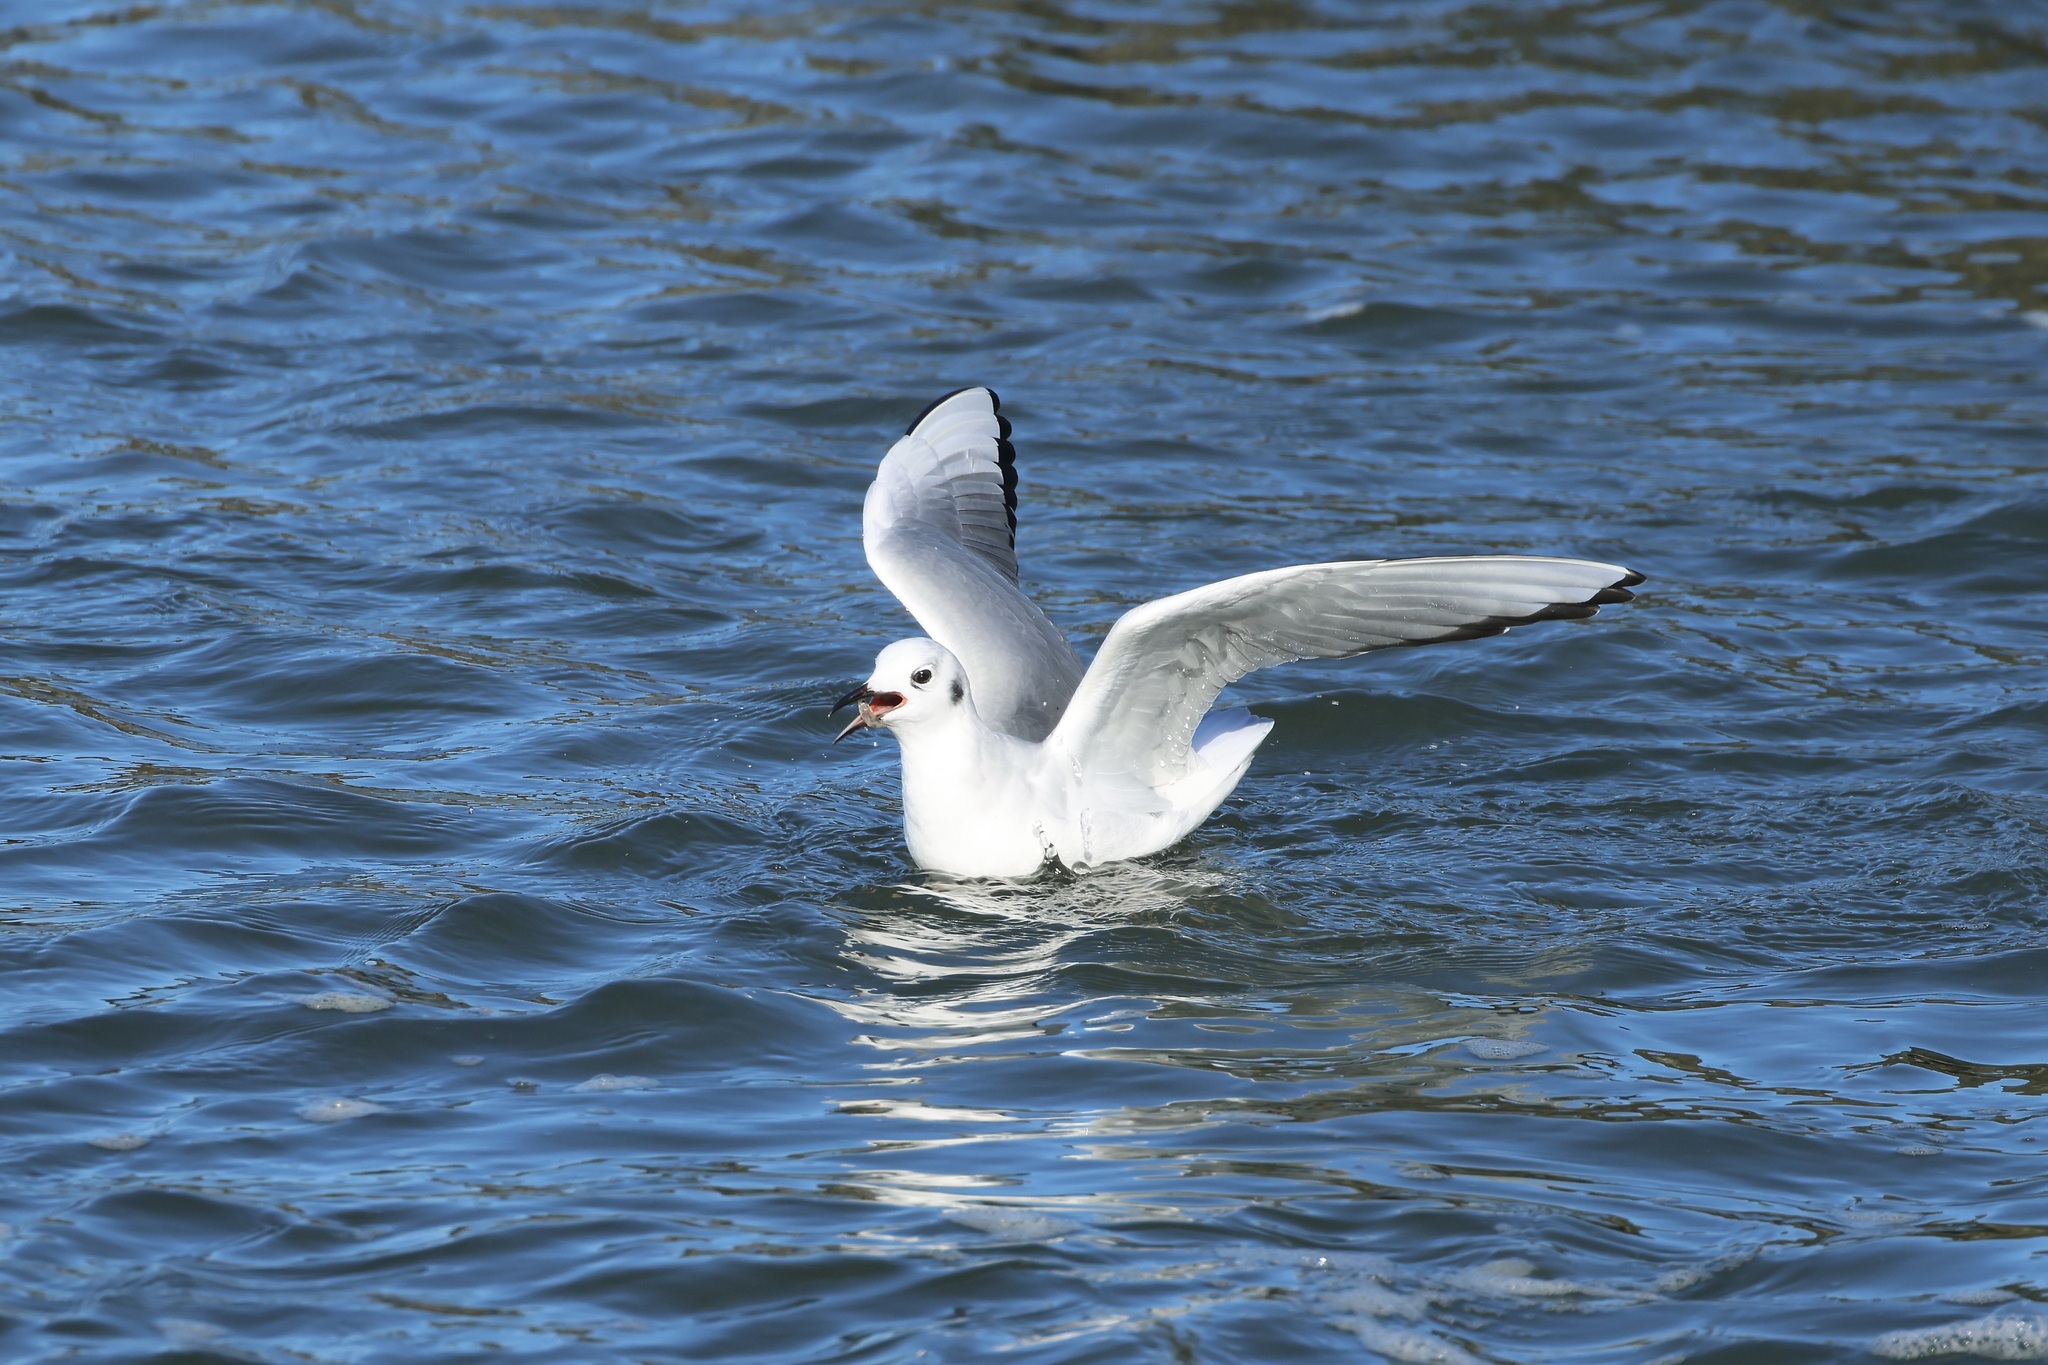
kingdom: Animalia
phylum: Chordata
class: Aves
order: Charadriiformes
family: Laridae
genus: Chroicocephalus
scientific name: Chroicocephalus philadelphia
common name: Bonaparte's gull
